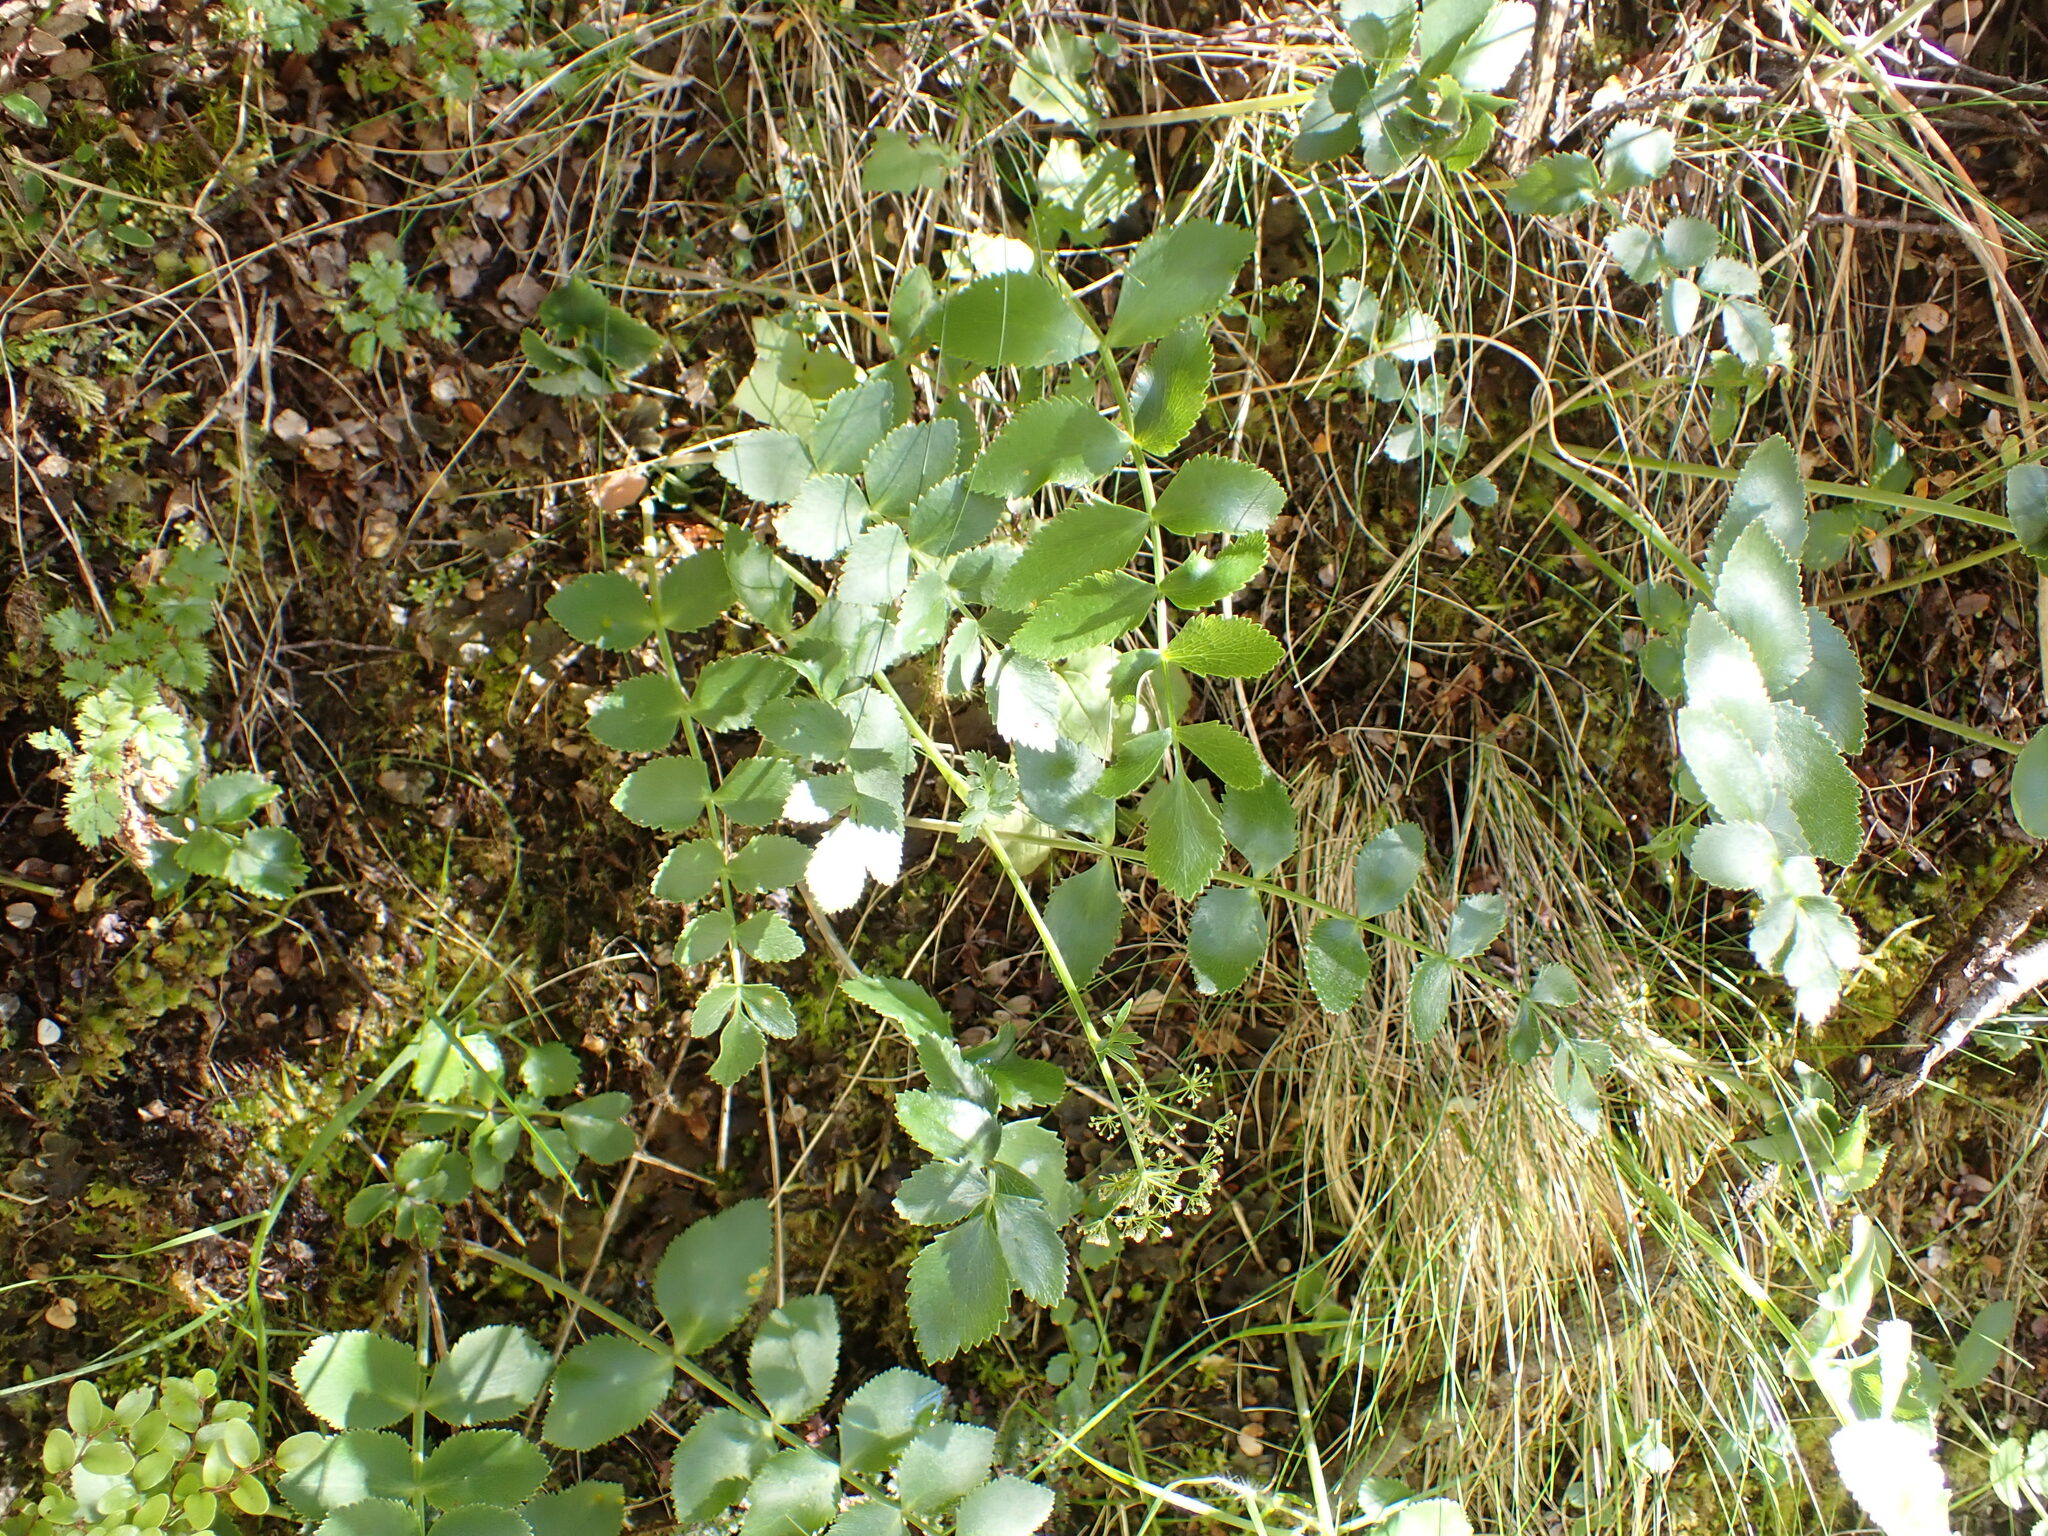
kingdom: Plantae
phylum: Tracheophyta
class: Magnoliopsida
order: Apiales
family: Apiaceae
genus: Gingidia
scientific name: Gingidia montana
